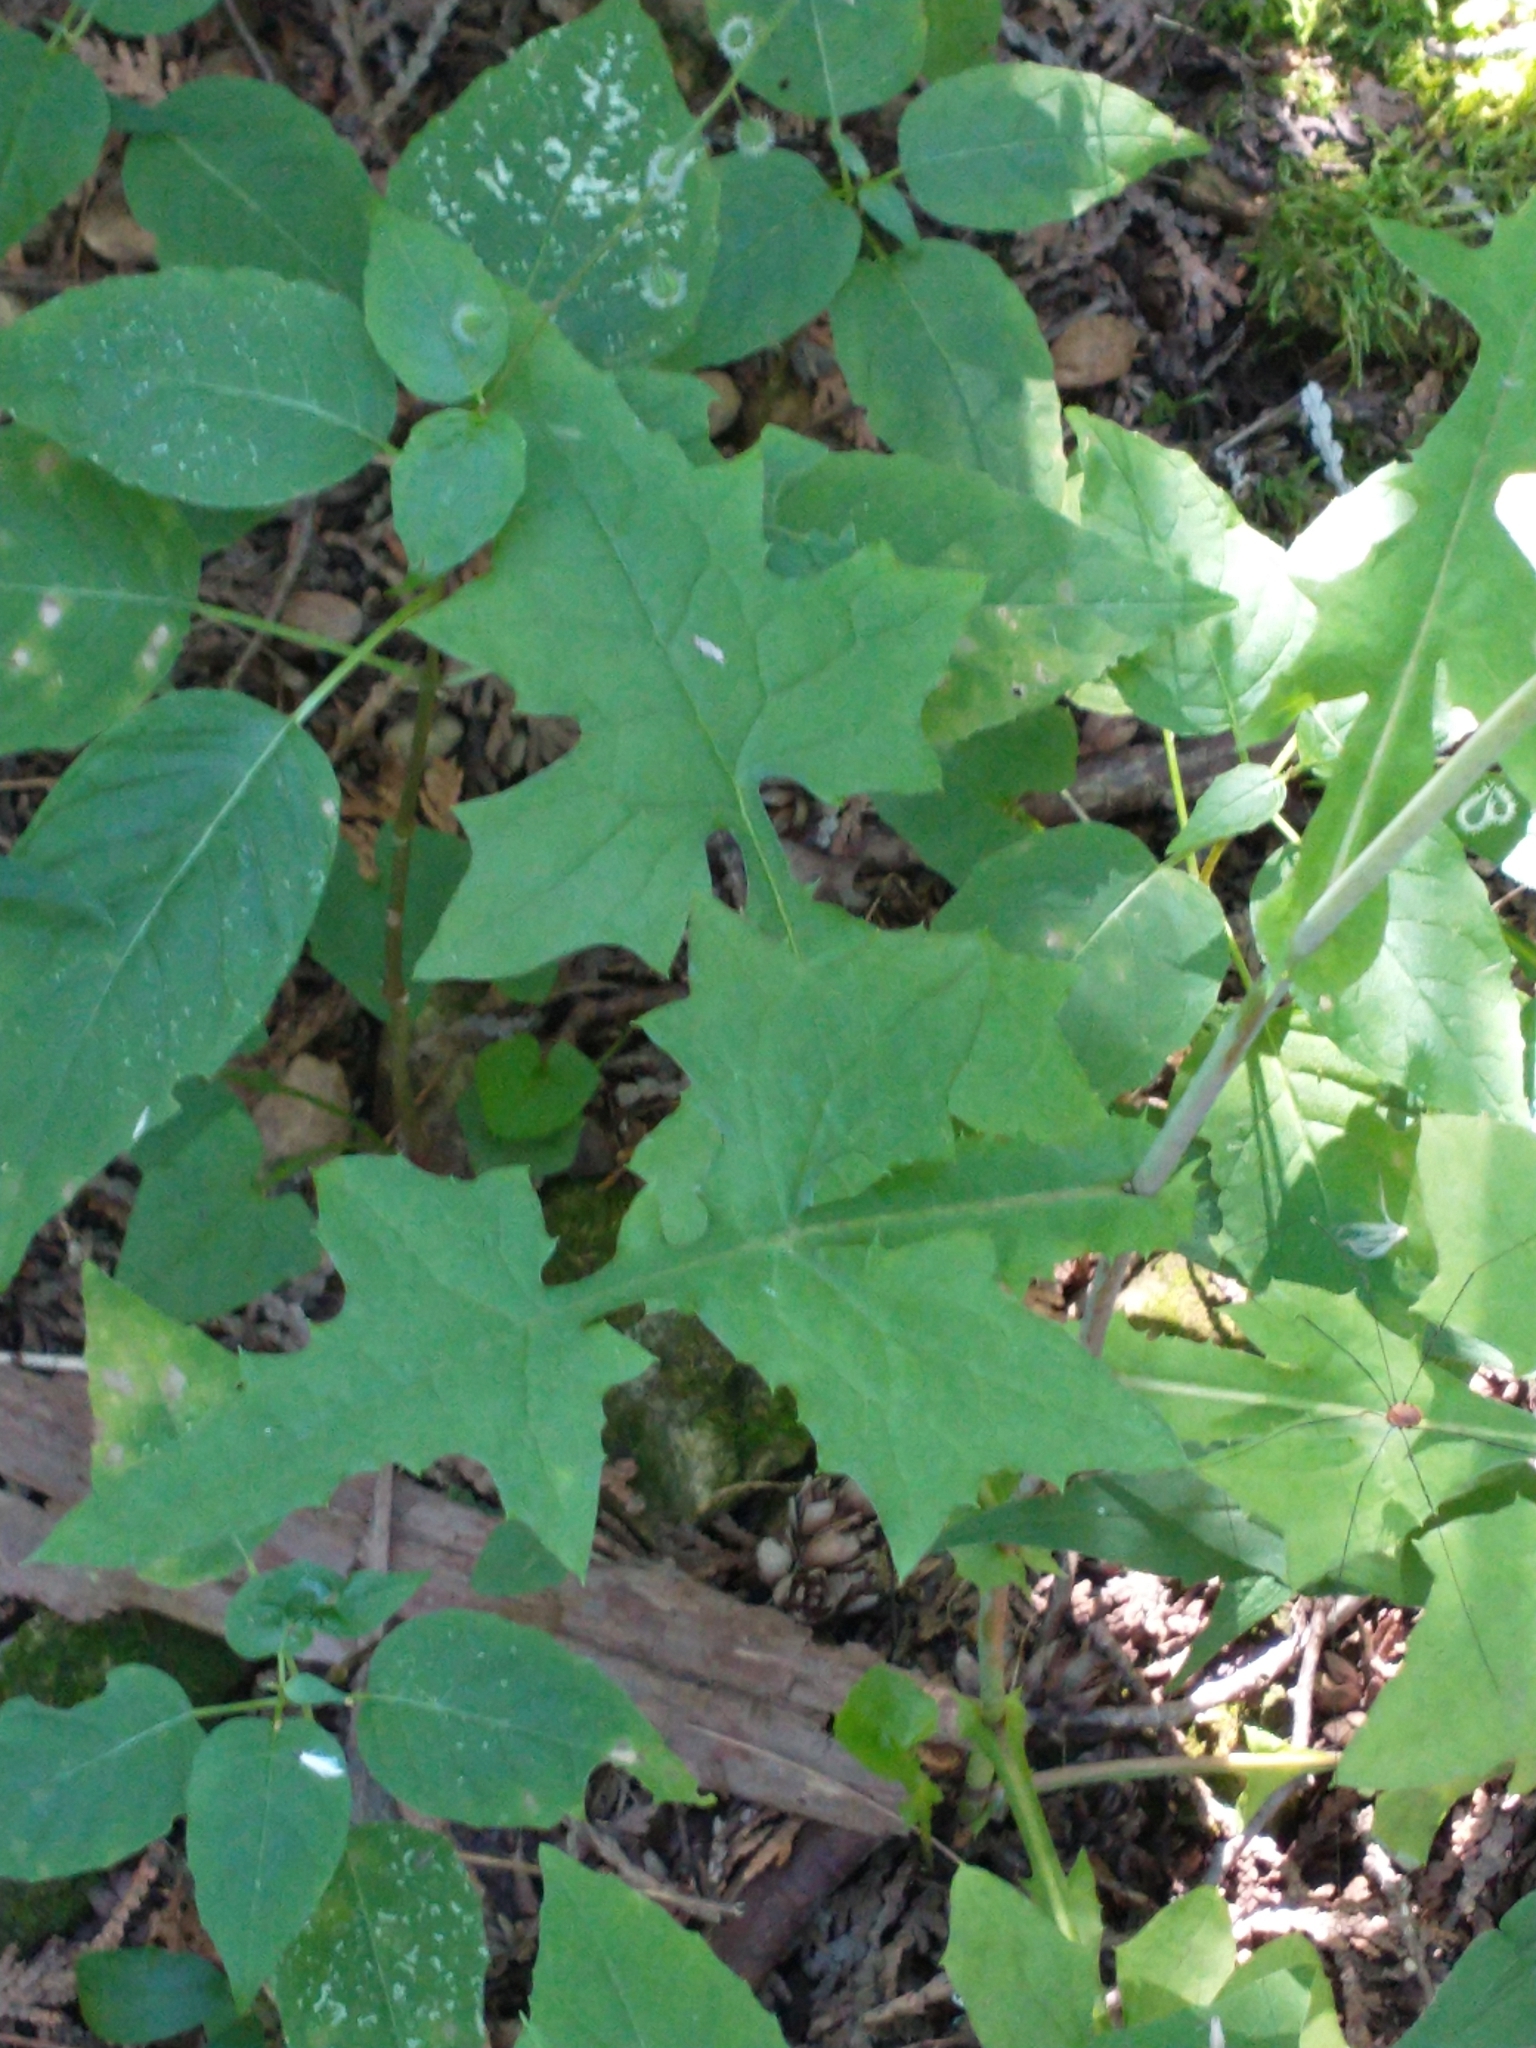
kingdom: Plantae
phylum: Tracheophyta
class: Magnoliopsida
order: Asterales
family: Asteraceae
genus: Mycelis
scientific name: Mycelis muralis
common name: Wall lettuce
